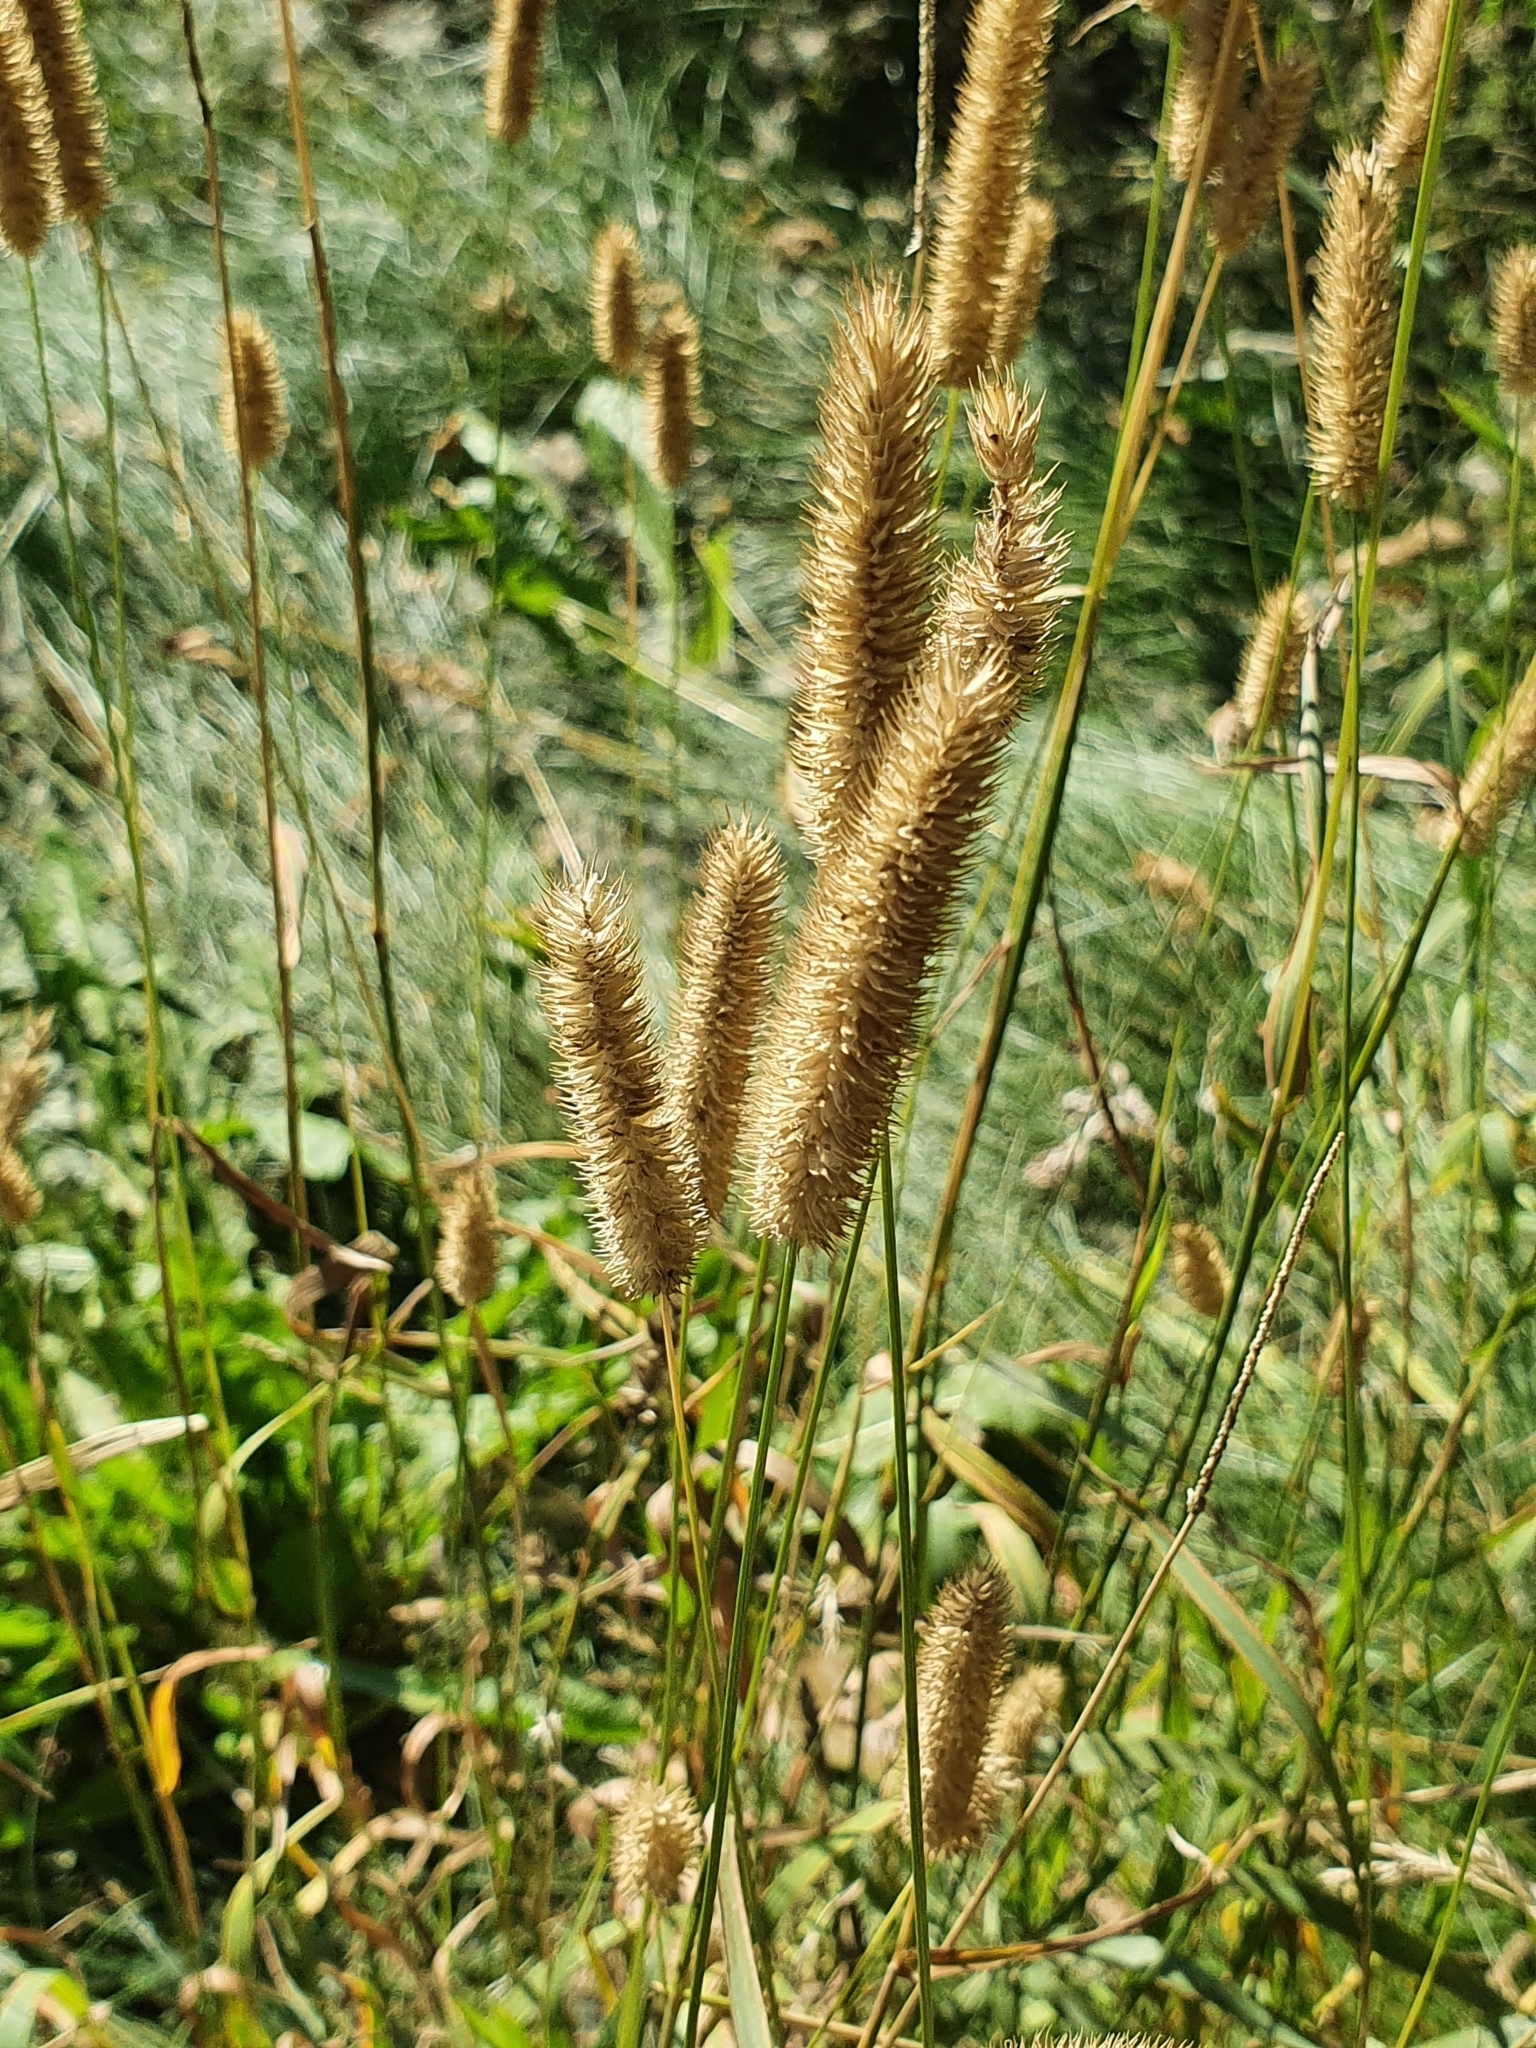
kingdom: Plantae
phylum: Tracheophyta
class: Liliopsida
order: Poales
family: Poaceae
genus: Phleum
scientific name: Phleum pratense
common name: Timothy grass
